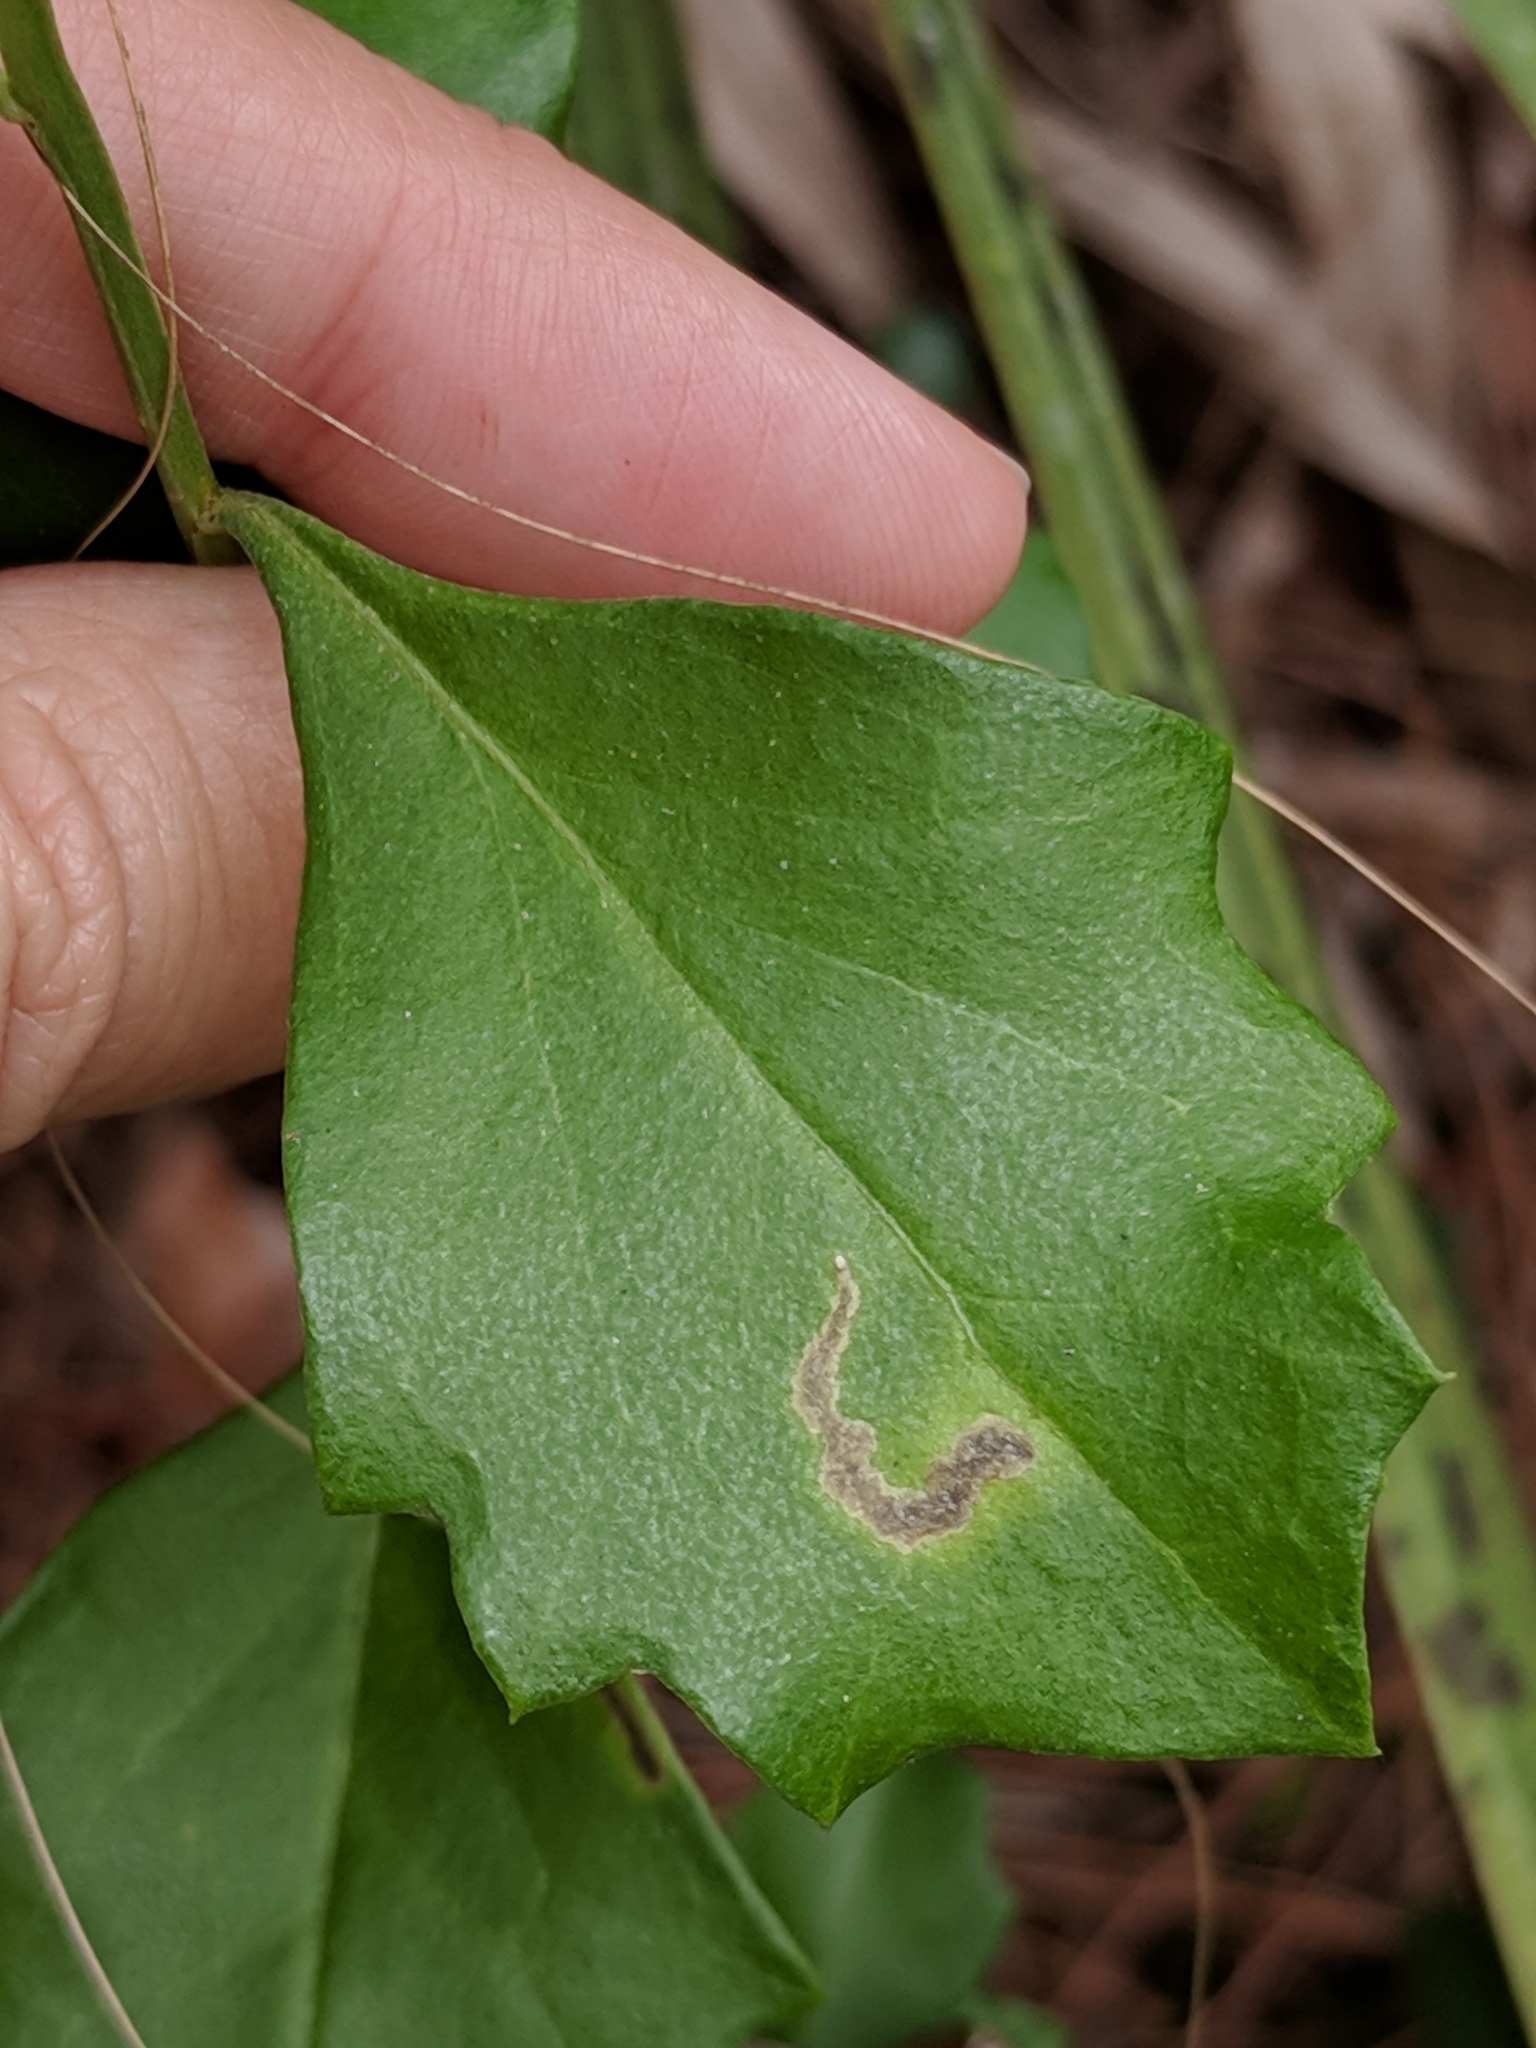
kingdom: Plantae
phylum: Tracheophyta
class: Magnoliopsida
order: Asterales
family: Asteraceae
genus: Baccharis
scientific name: Baccharis halimifolia
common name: Eastern baccharis
